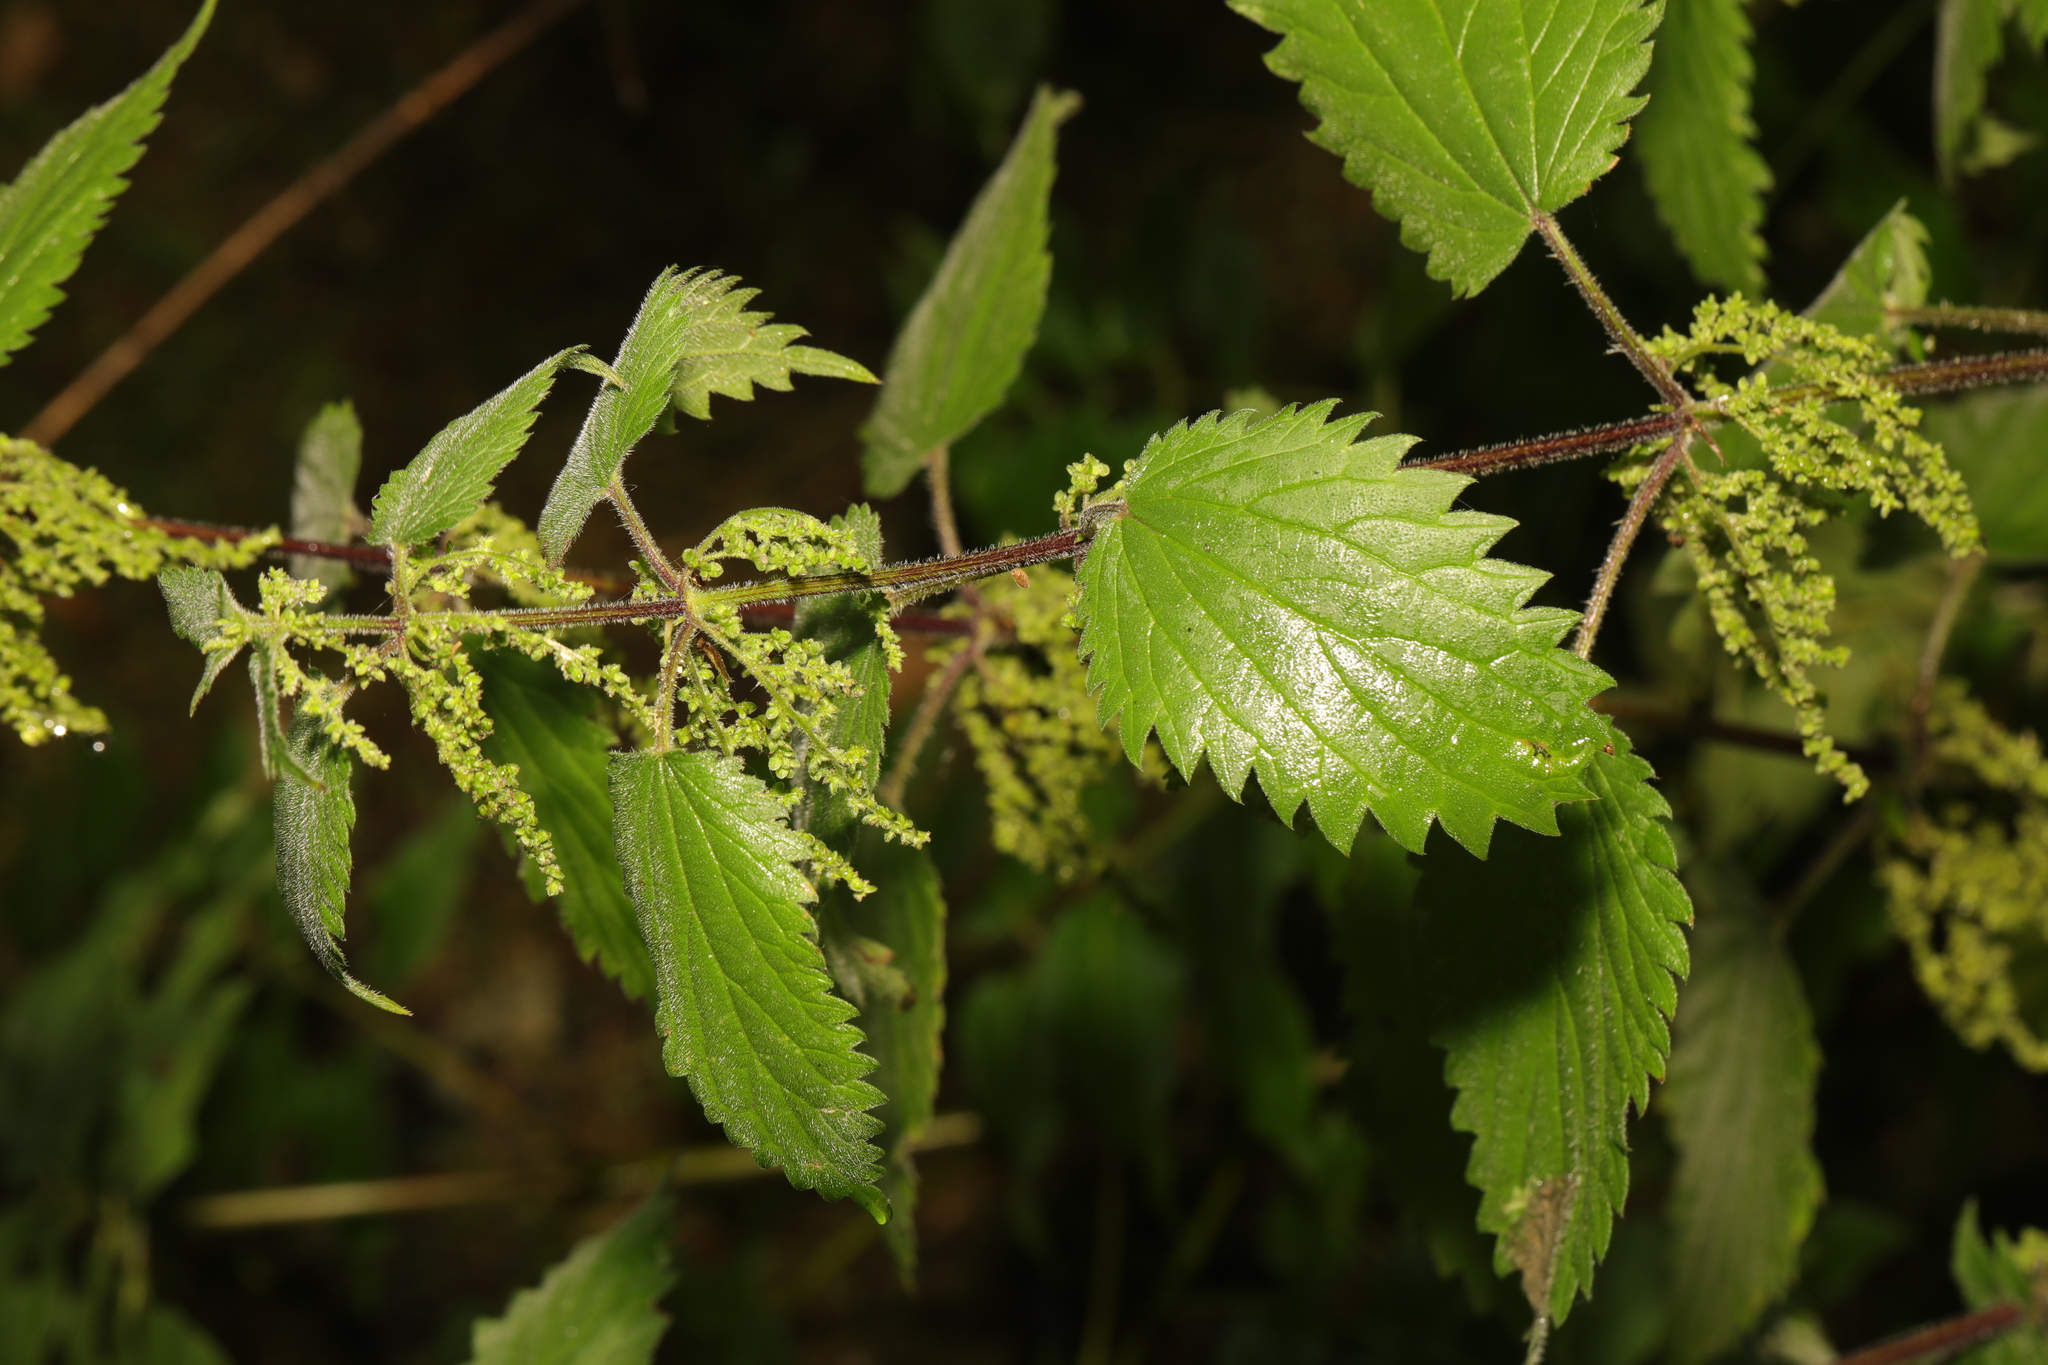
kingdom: Plantae
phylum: Tracheophyta
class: Magnoliopsida
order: Rosales
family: Urticaceae
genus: Urtica
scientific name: Urtica dioica
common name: Common nettle
